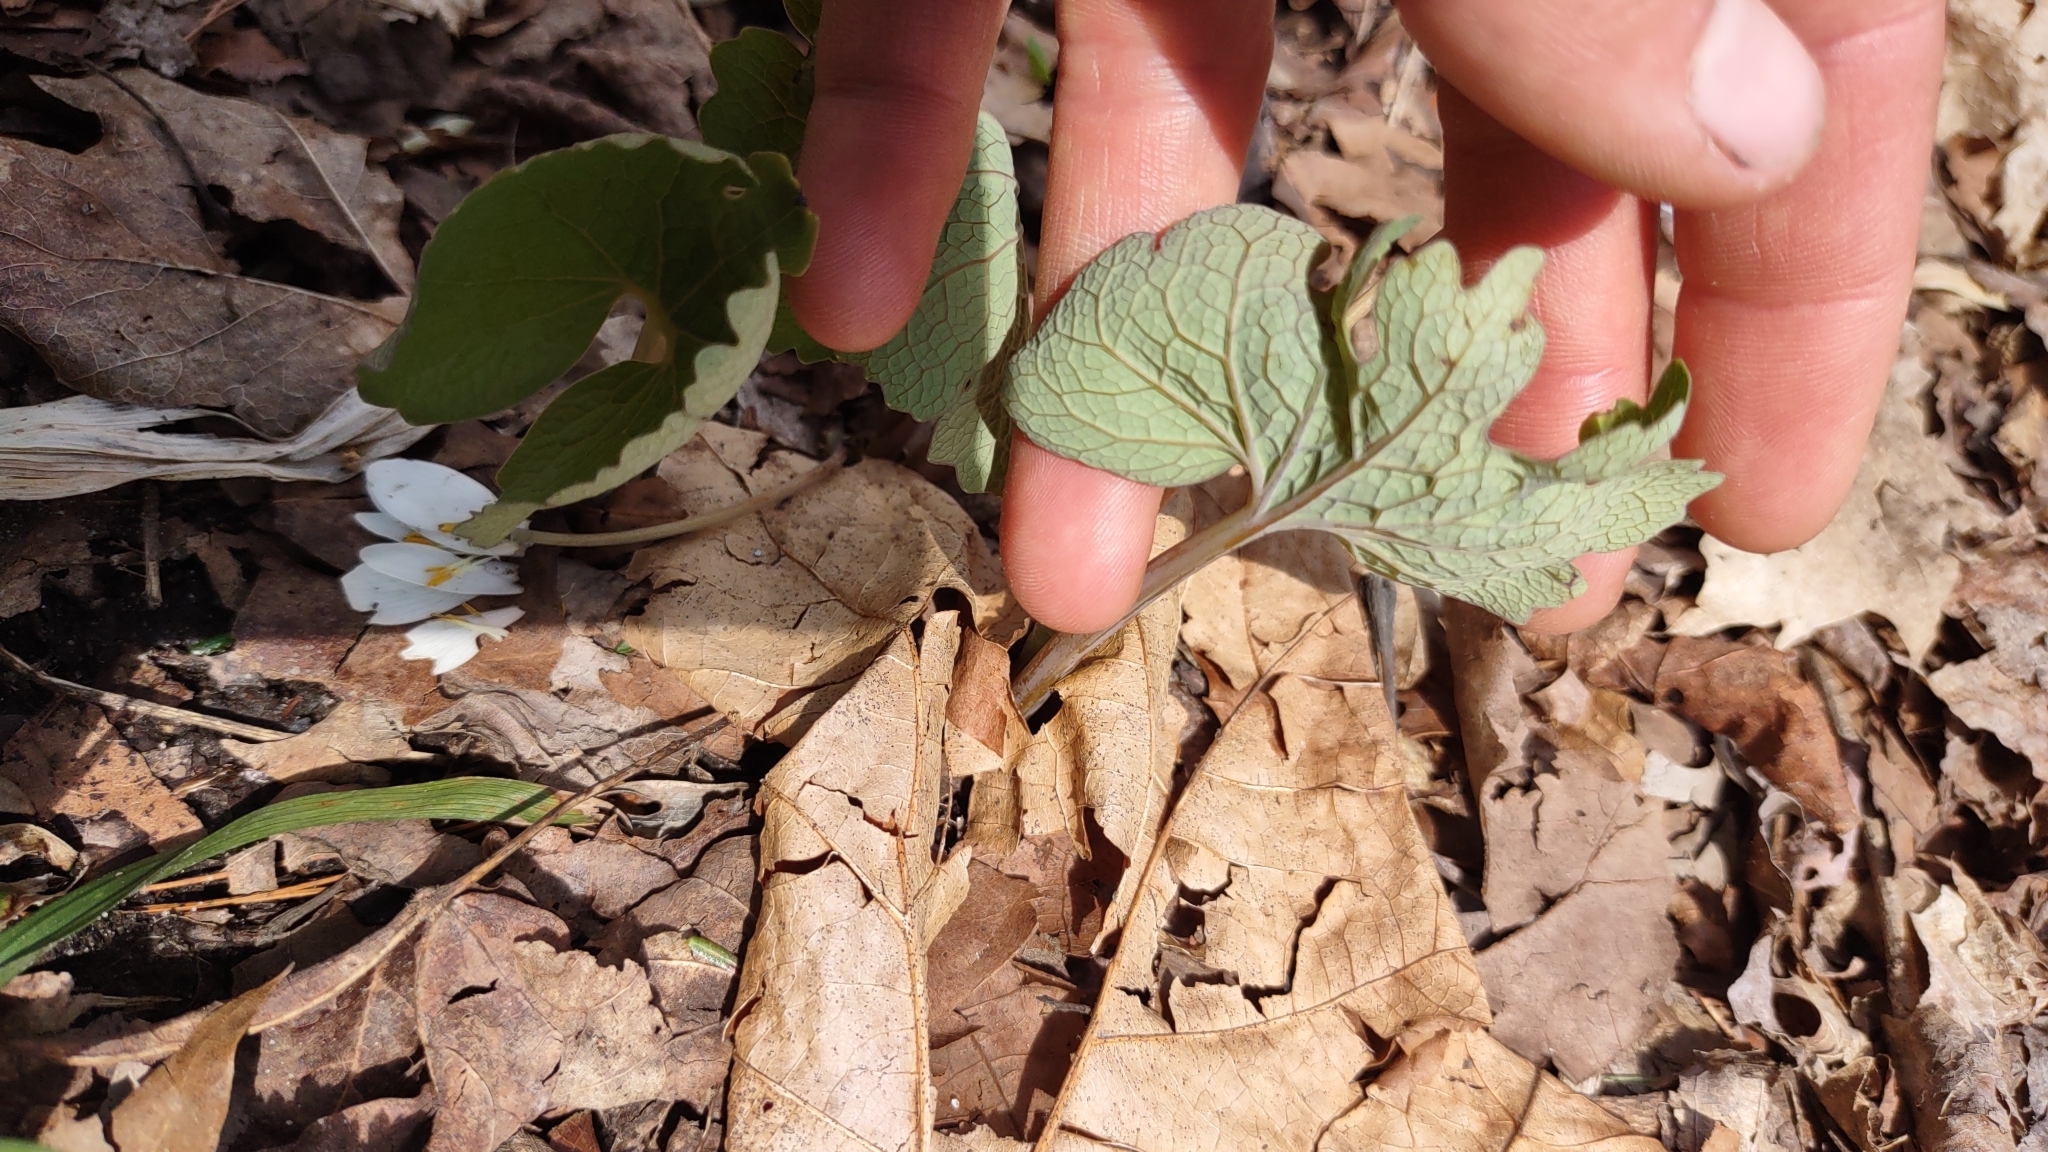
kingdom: Plantae
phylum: Tracheophyta
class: Magnoliopsida
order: Ranunculales
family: Papaveraceae
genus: Sanguinaria
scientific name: Sanguinaria canadensis
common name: Bloodroot
